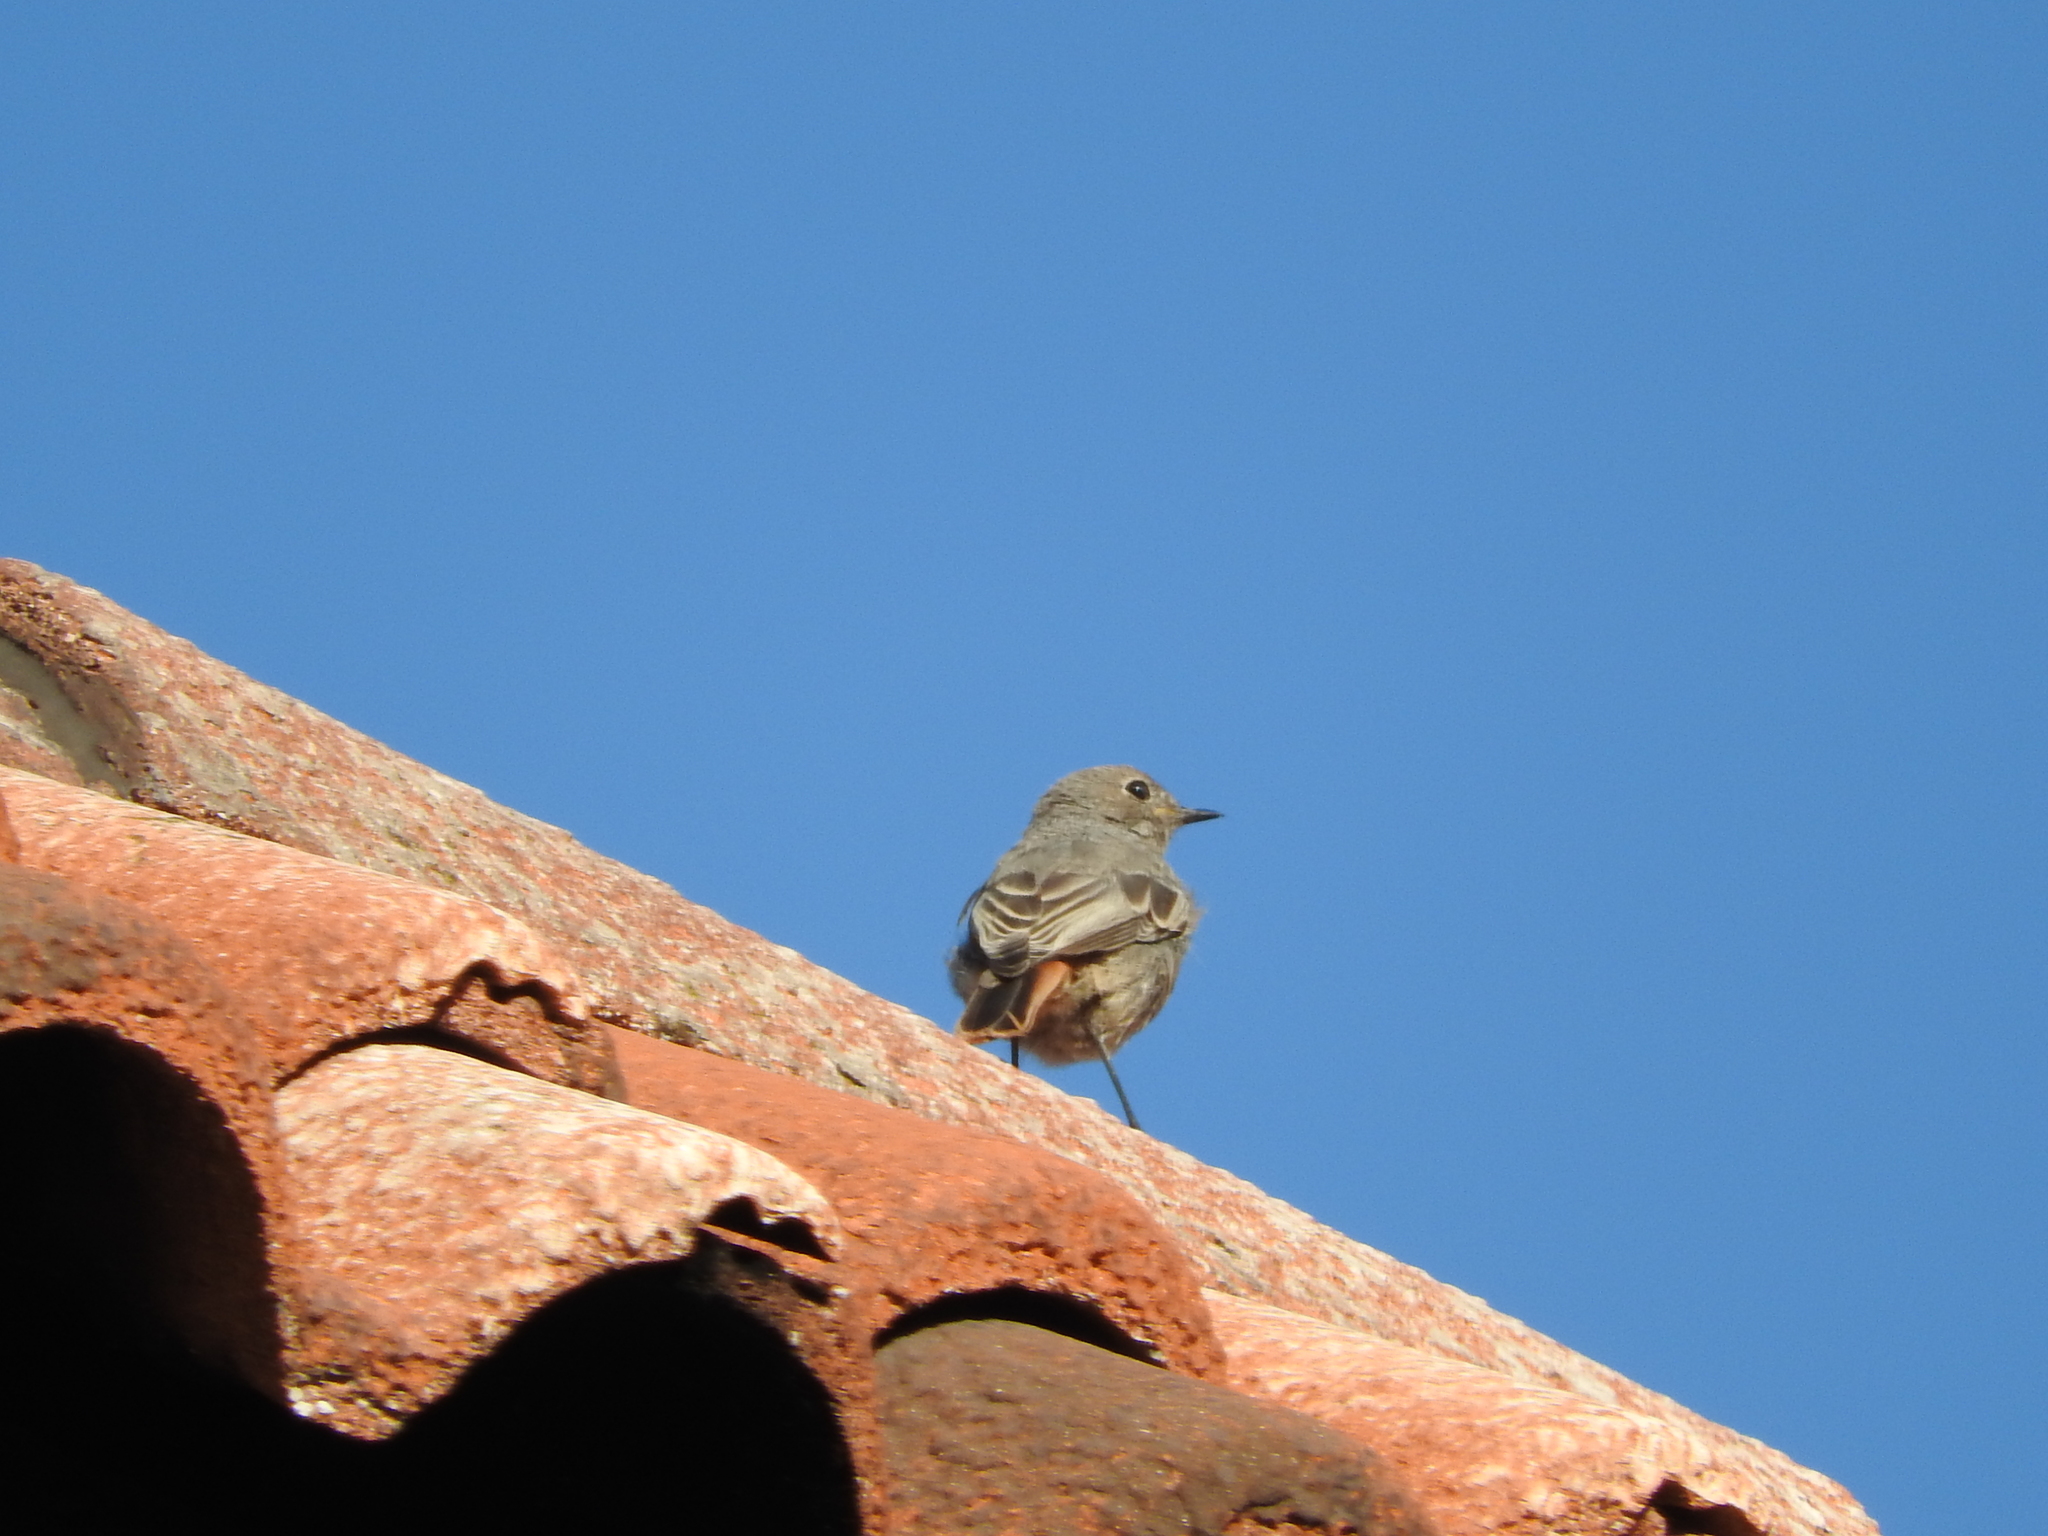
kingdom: Animalia
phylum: Chordata
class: Aves
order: Passeriformes
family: Muscicapidae
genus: Phoenicurus
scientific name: Phoenicurus ochruros
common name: Black redstart
